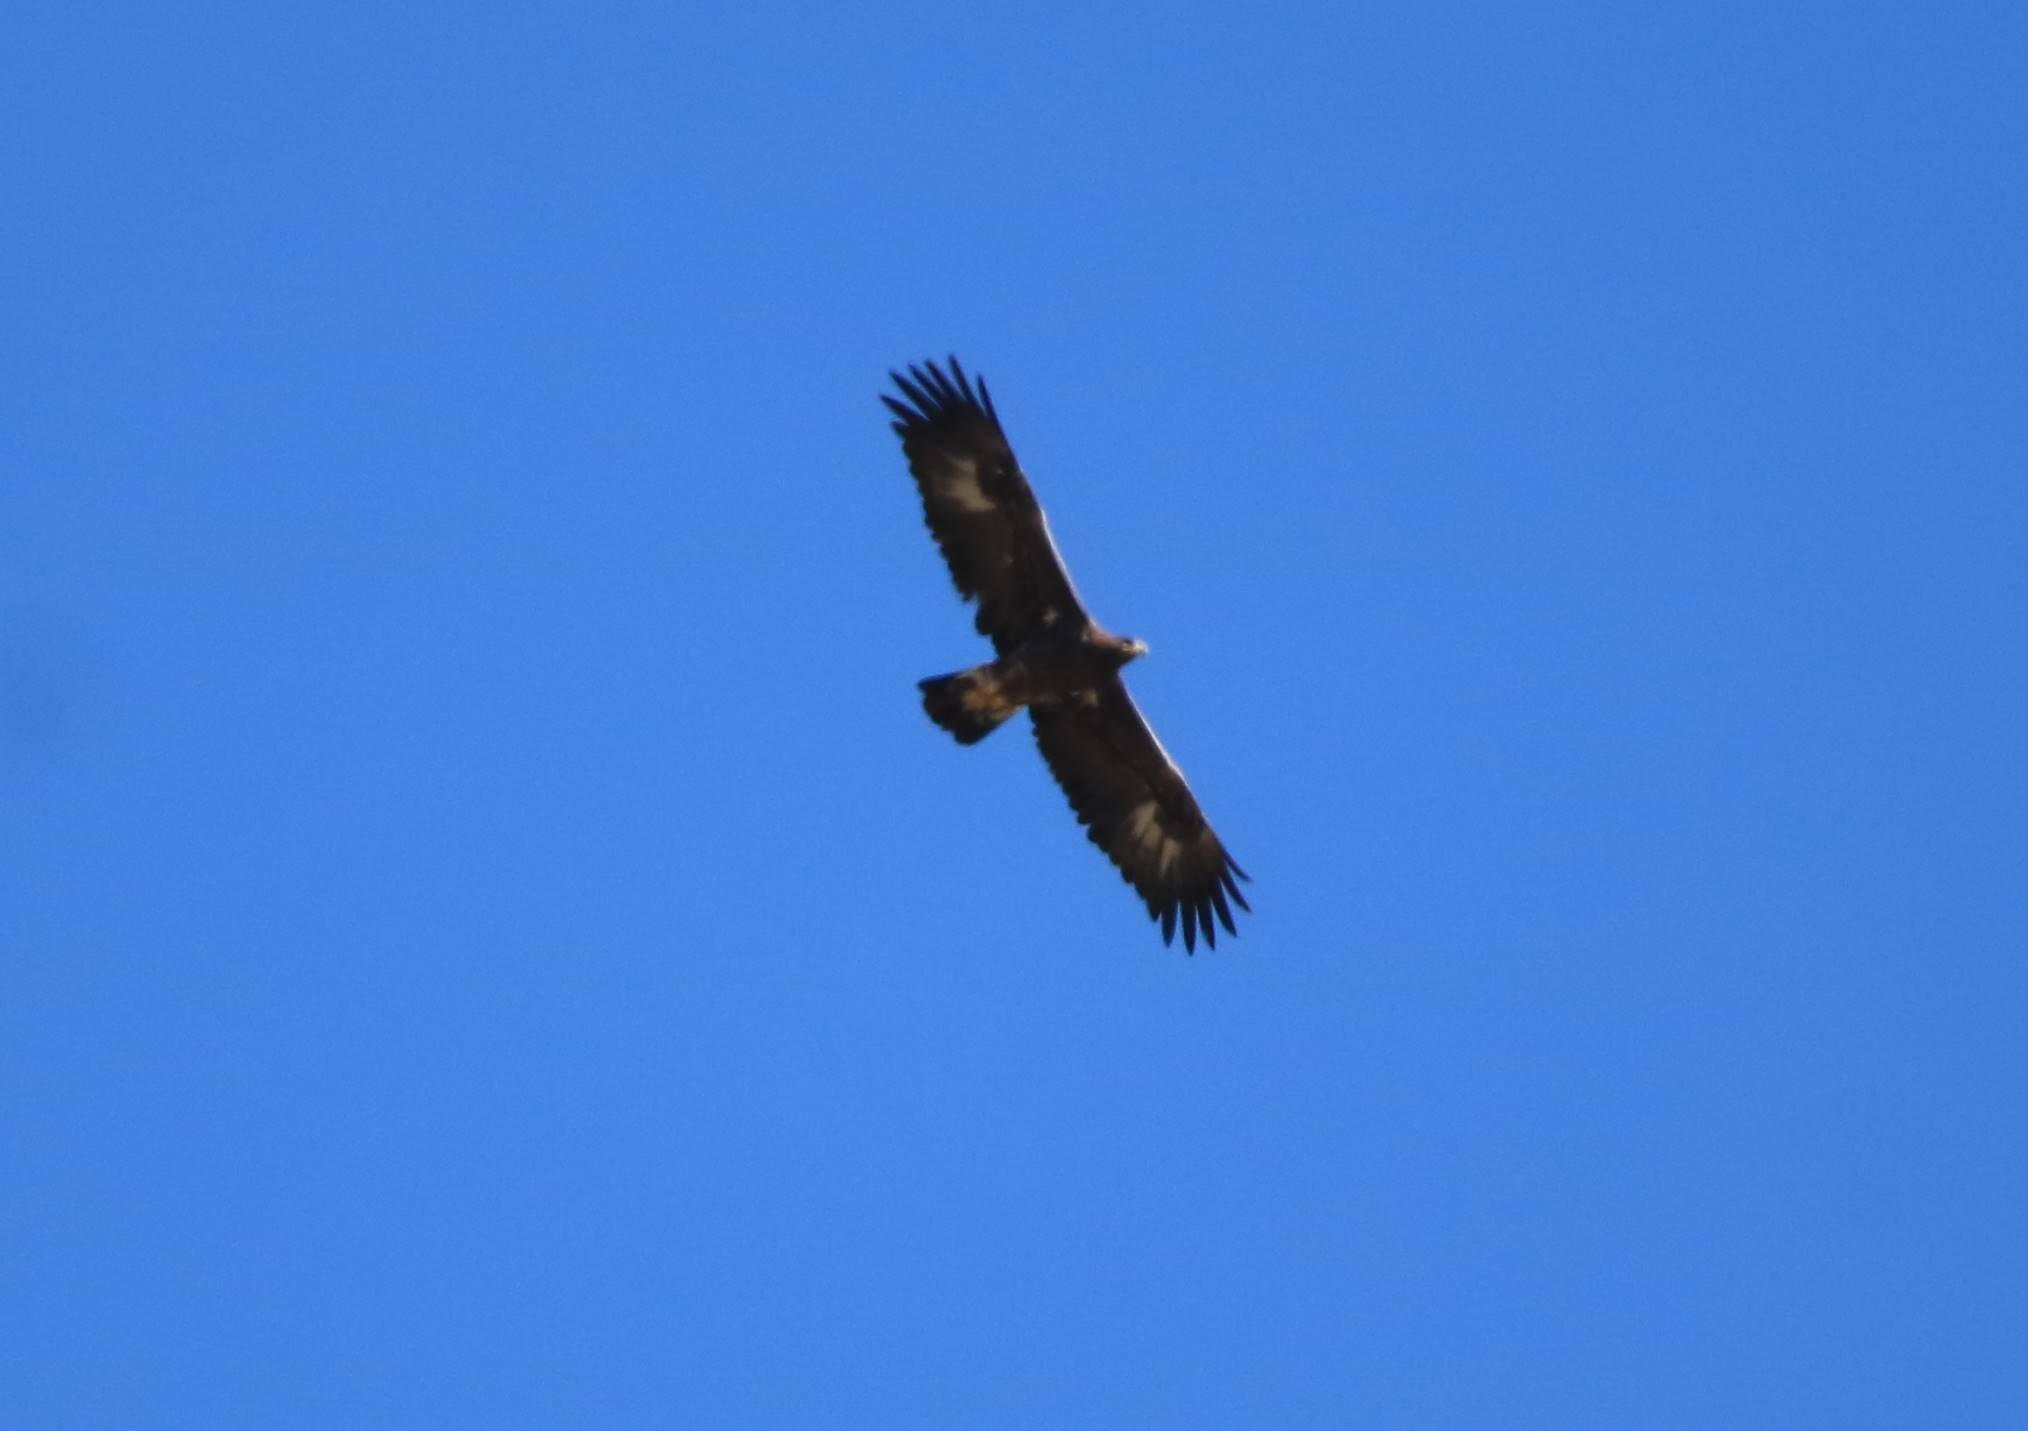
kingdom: Animalia
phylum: Chordata
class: Aves
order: Accipitriformes
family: Accipitridae
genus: Aquila
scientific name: Aquila chrysaetos
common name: Golden eagle
